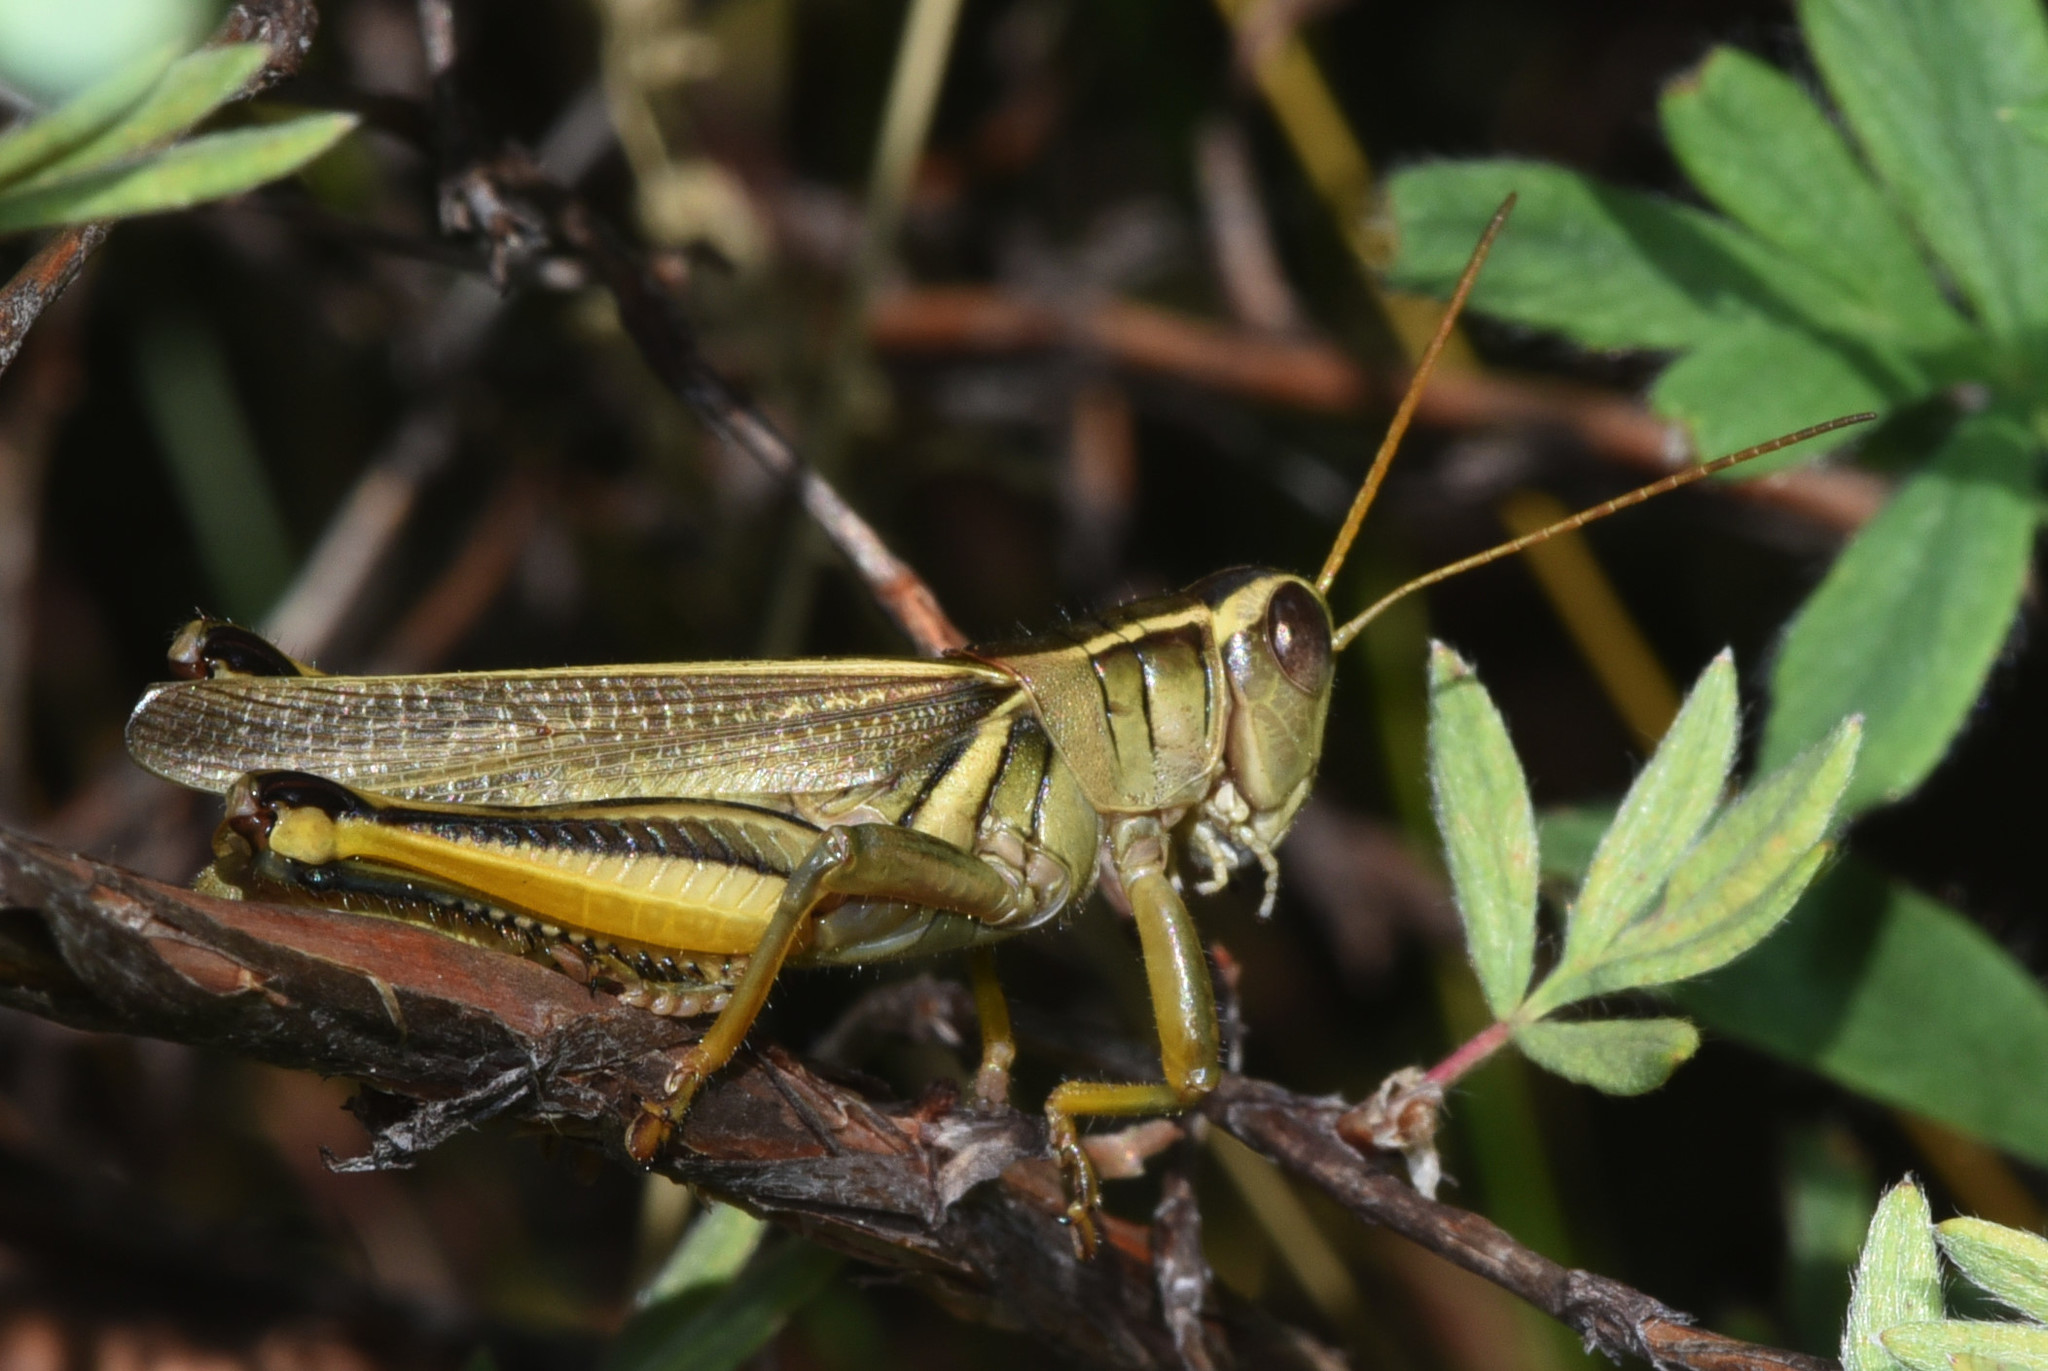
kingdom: Animalia
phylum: Arthropoda
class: Insecta
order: Orthoptera
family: Acrididae
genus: Melanoplus
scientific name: Melanoplus bivittatus
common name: Two-striped grasshopper
